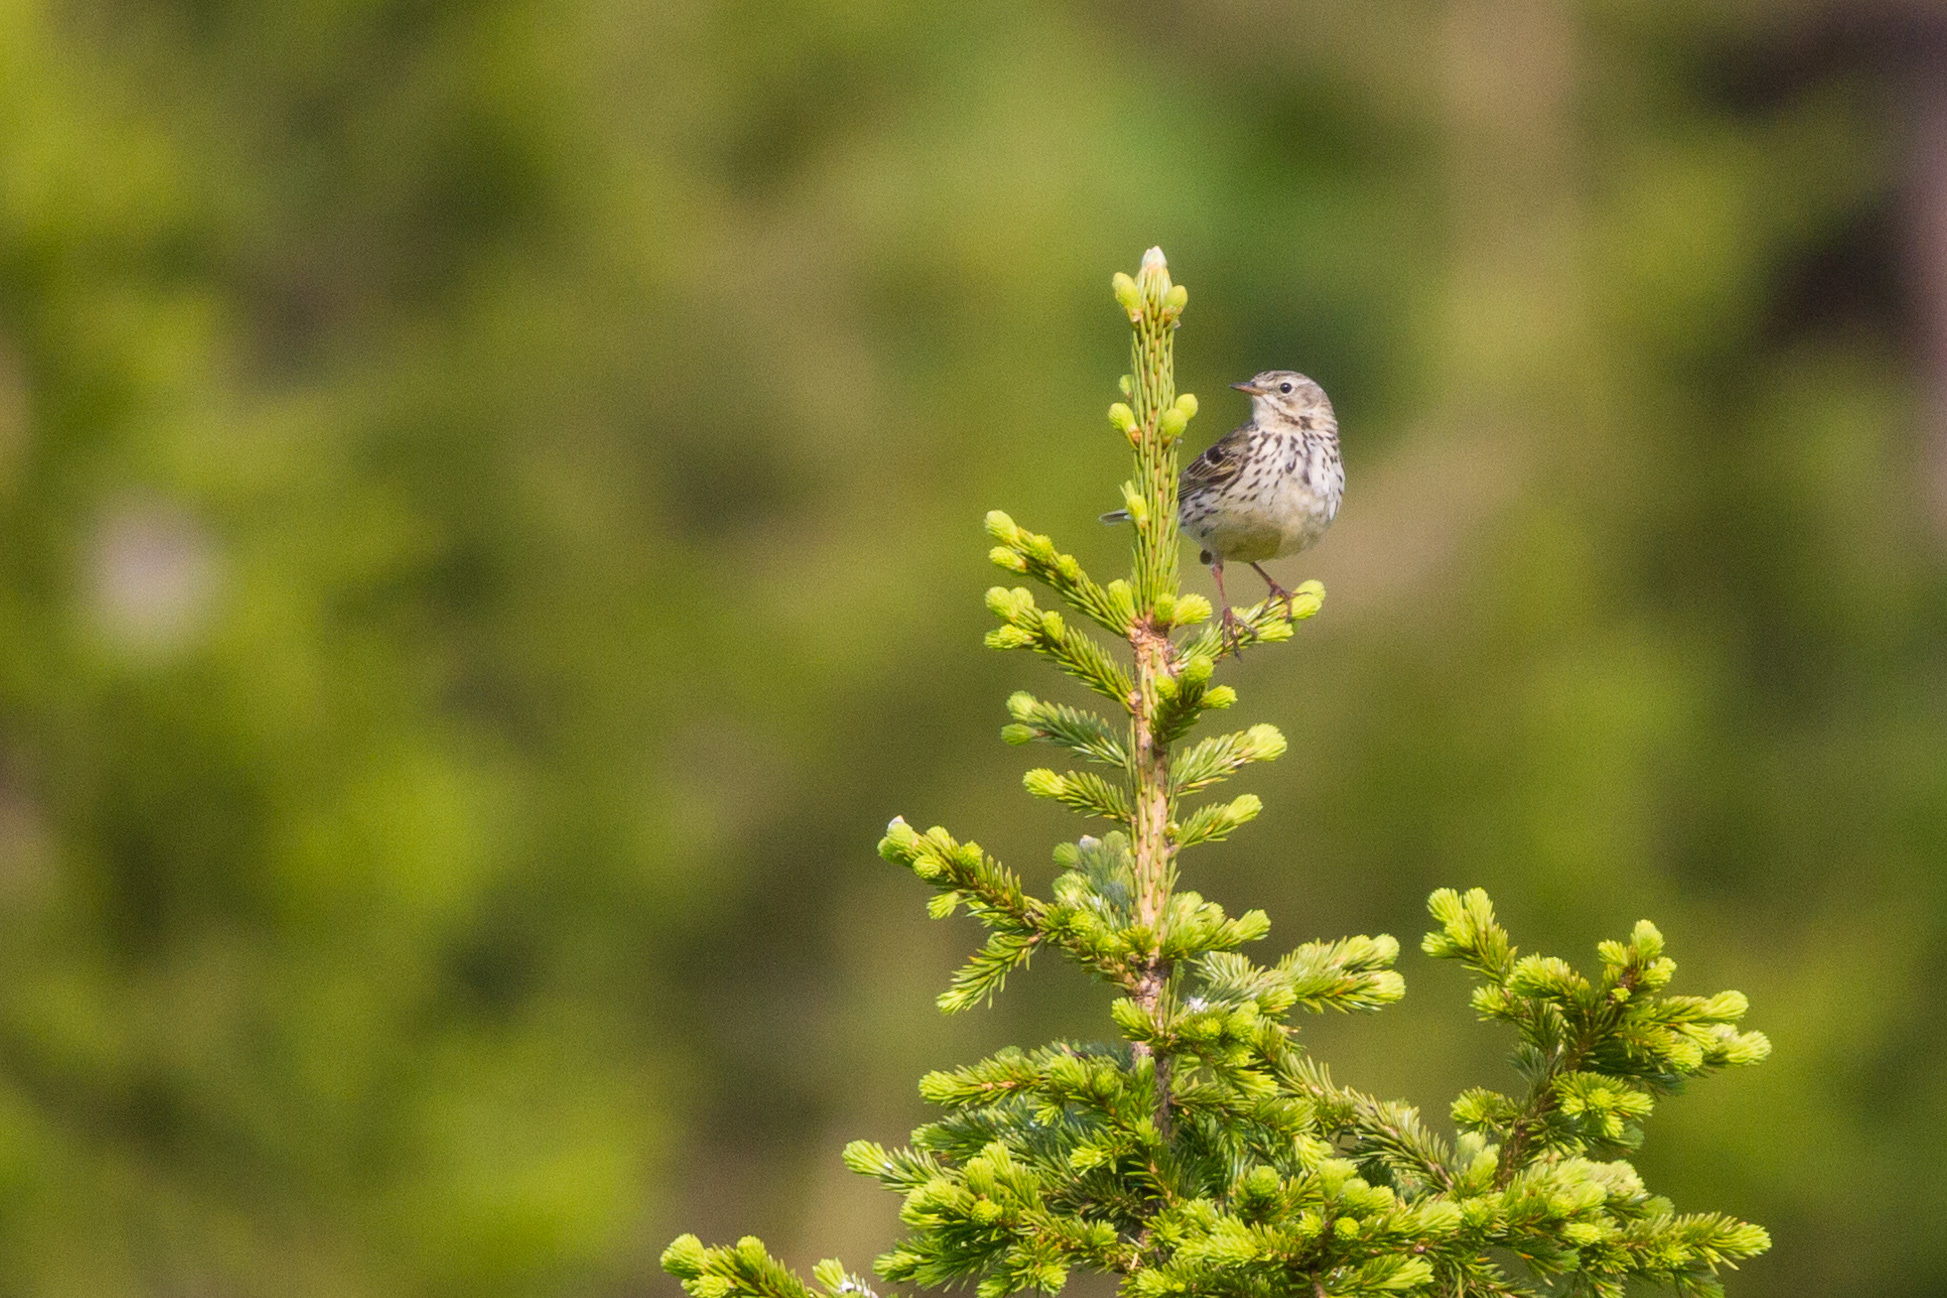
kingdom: Animalia
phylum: Chordata
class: Aves
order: Passeriformes
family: Motacillidae
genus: Anthus
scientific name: Anthus trivialis
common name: Tree pipit
